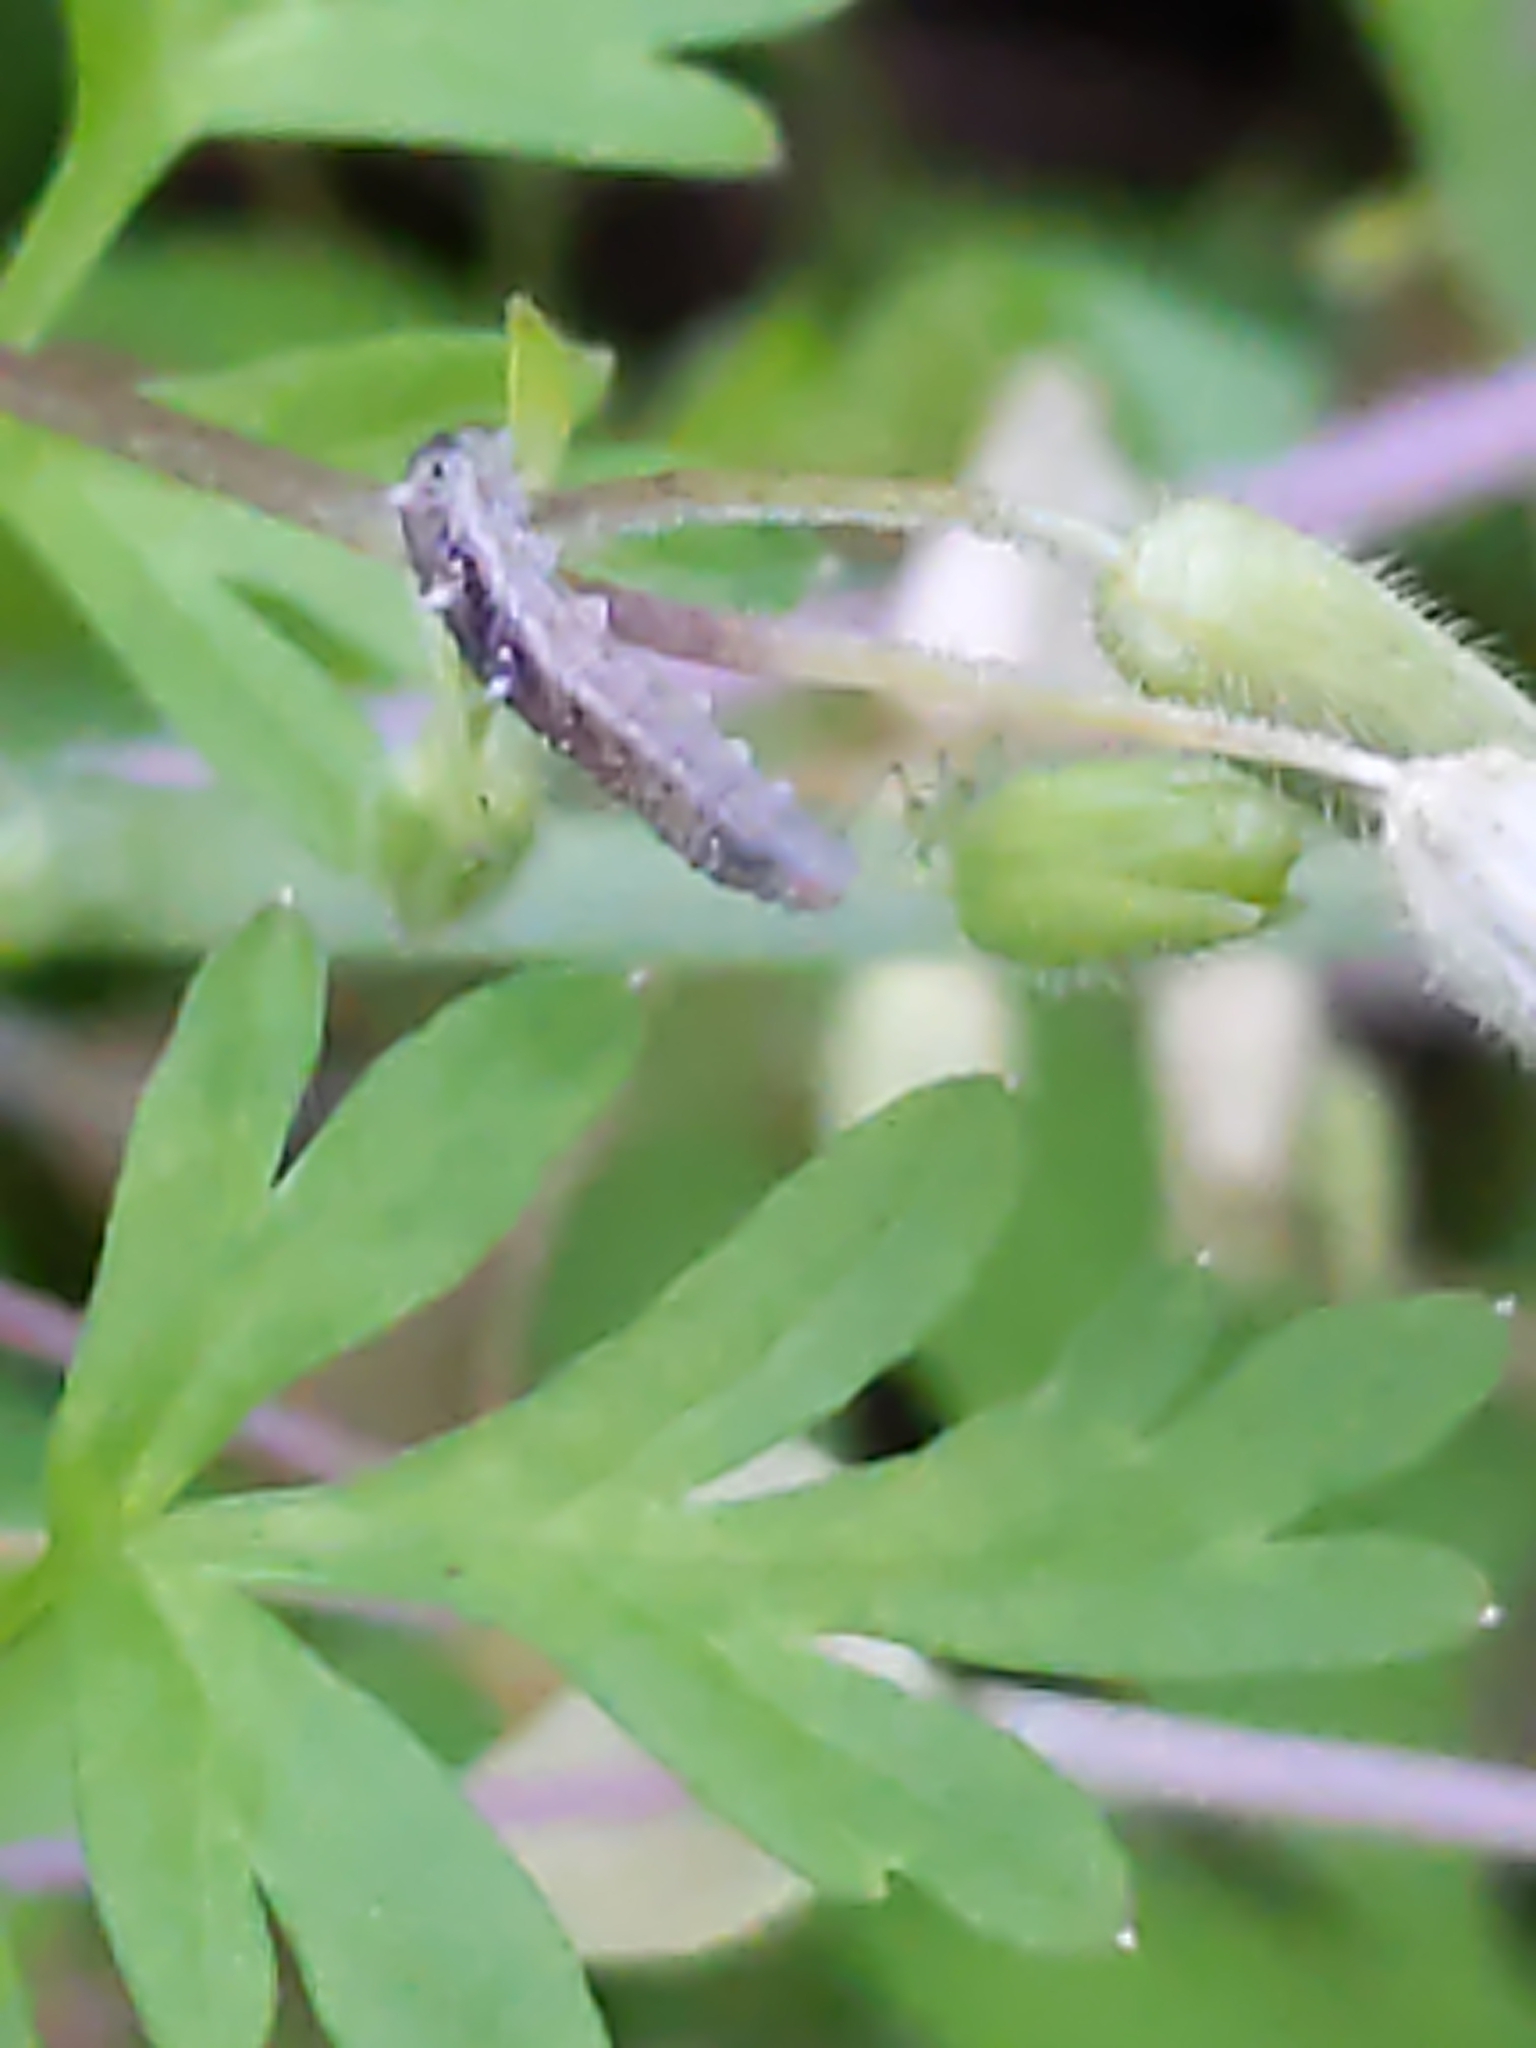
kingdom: Animalia
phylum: Arthropoda
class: Insecta
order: Diptera
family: Syrphidae
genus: Eupeodes
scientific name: Eupeodes americanus
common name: Long-tailed aphideater
